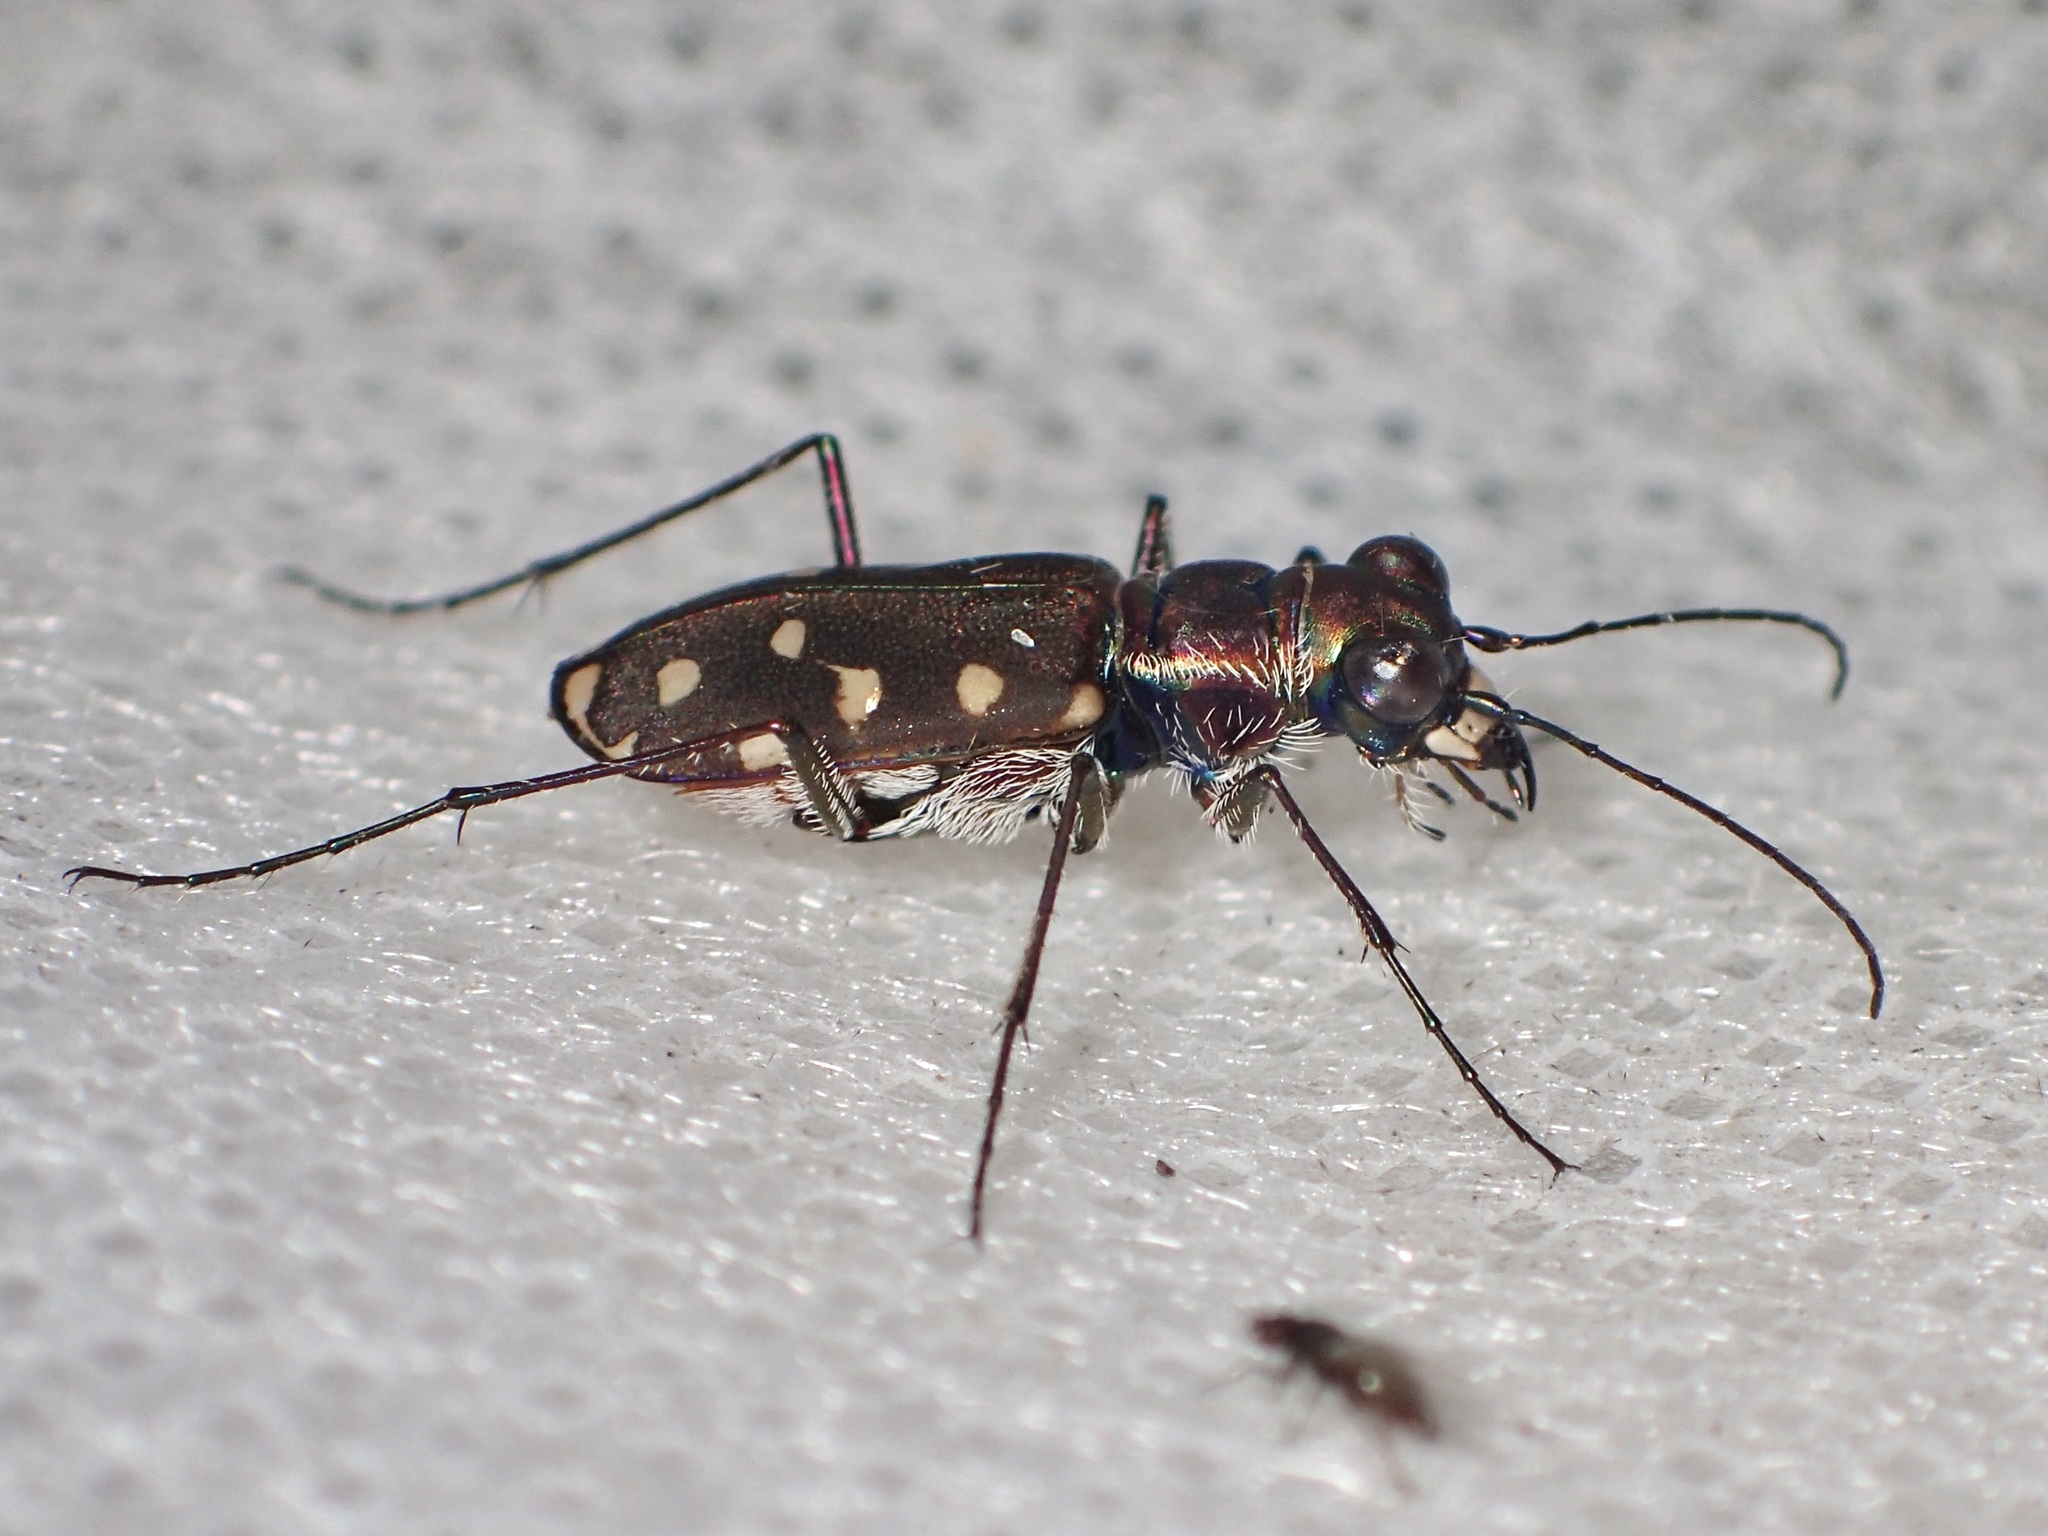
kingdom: Animalia
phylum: Arthropoda
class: Insecta
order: Coleoptera
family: Carabidae
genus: Cicindela
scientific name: Cicindela sedecimpunctata
